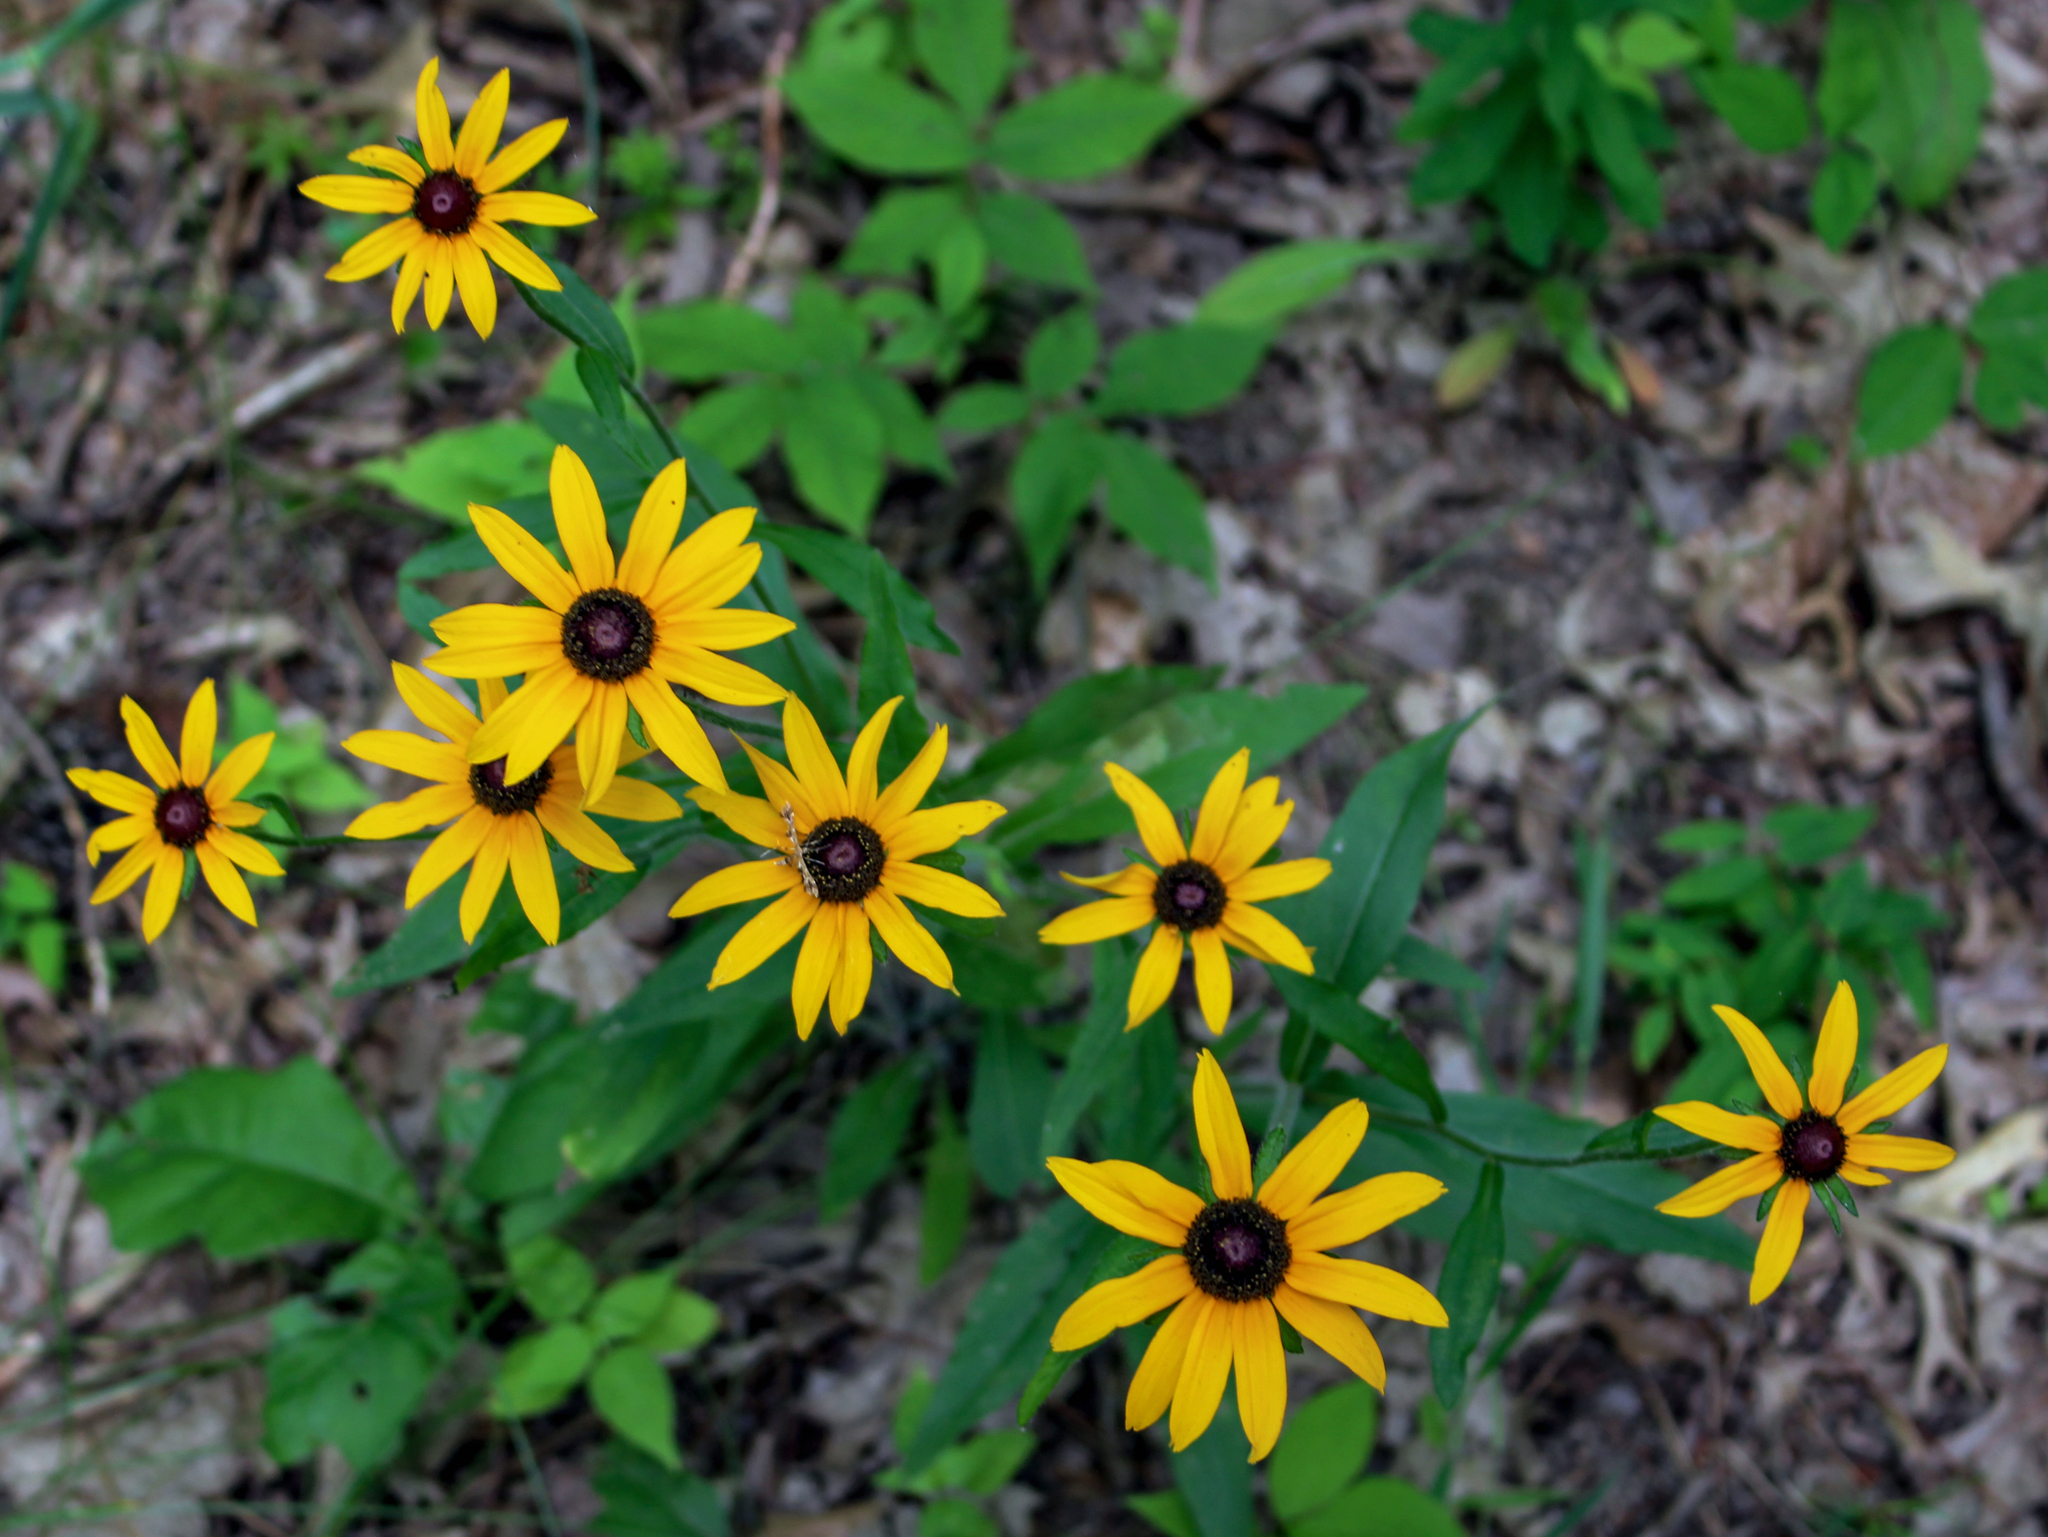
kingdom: Plantae
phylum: Tracheophyta
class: Magnoliopsida
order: Asterales
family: Asteraceae
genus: Rudbeckia
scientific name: Rudbeckia hirta
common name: Black-eyed-susan
